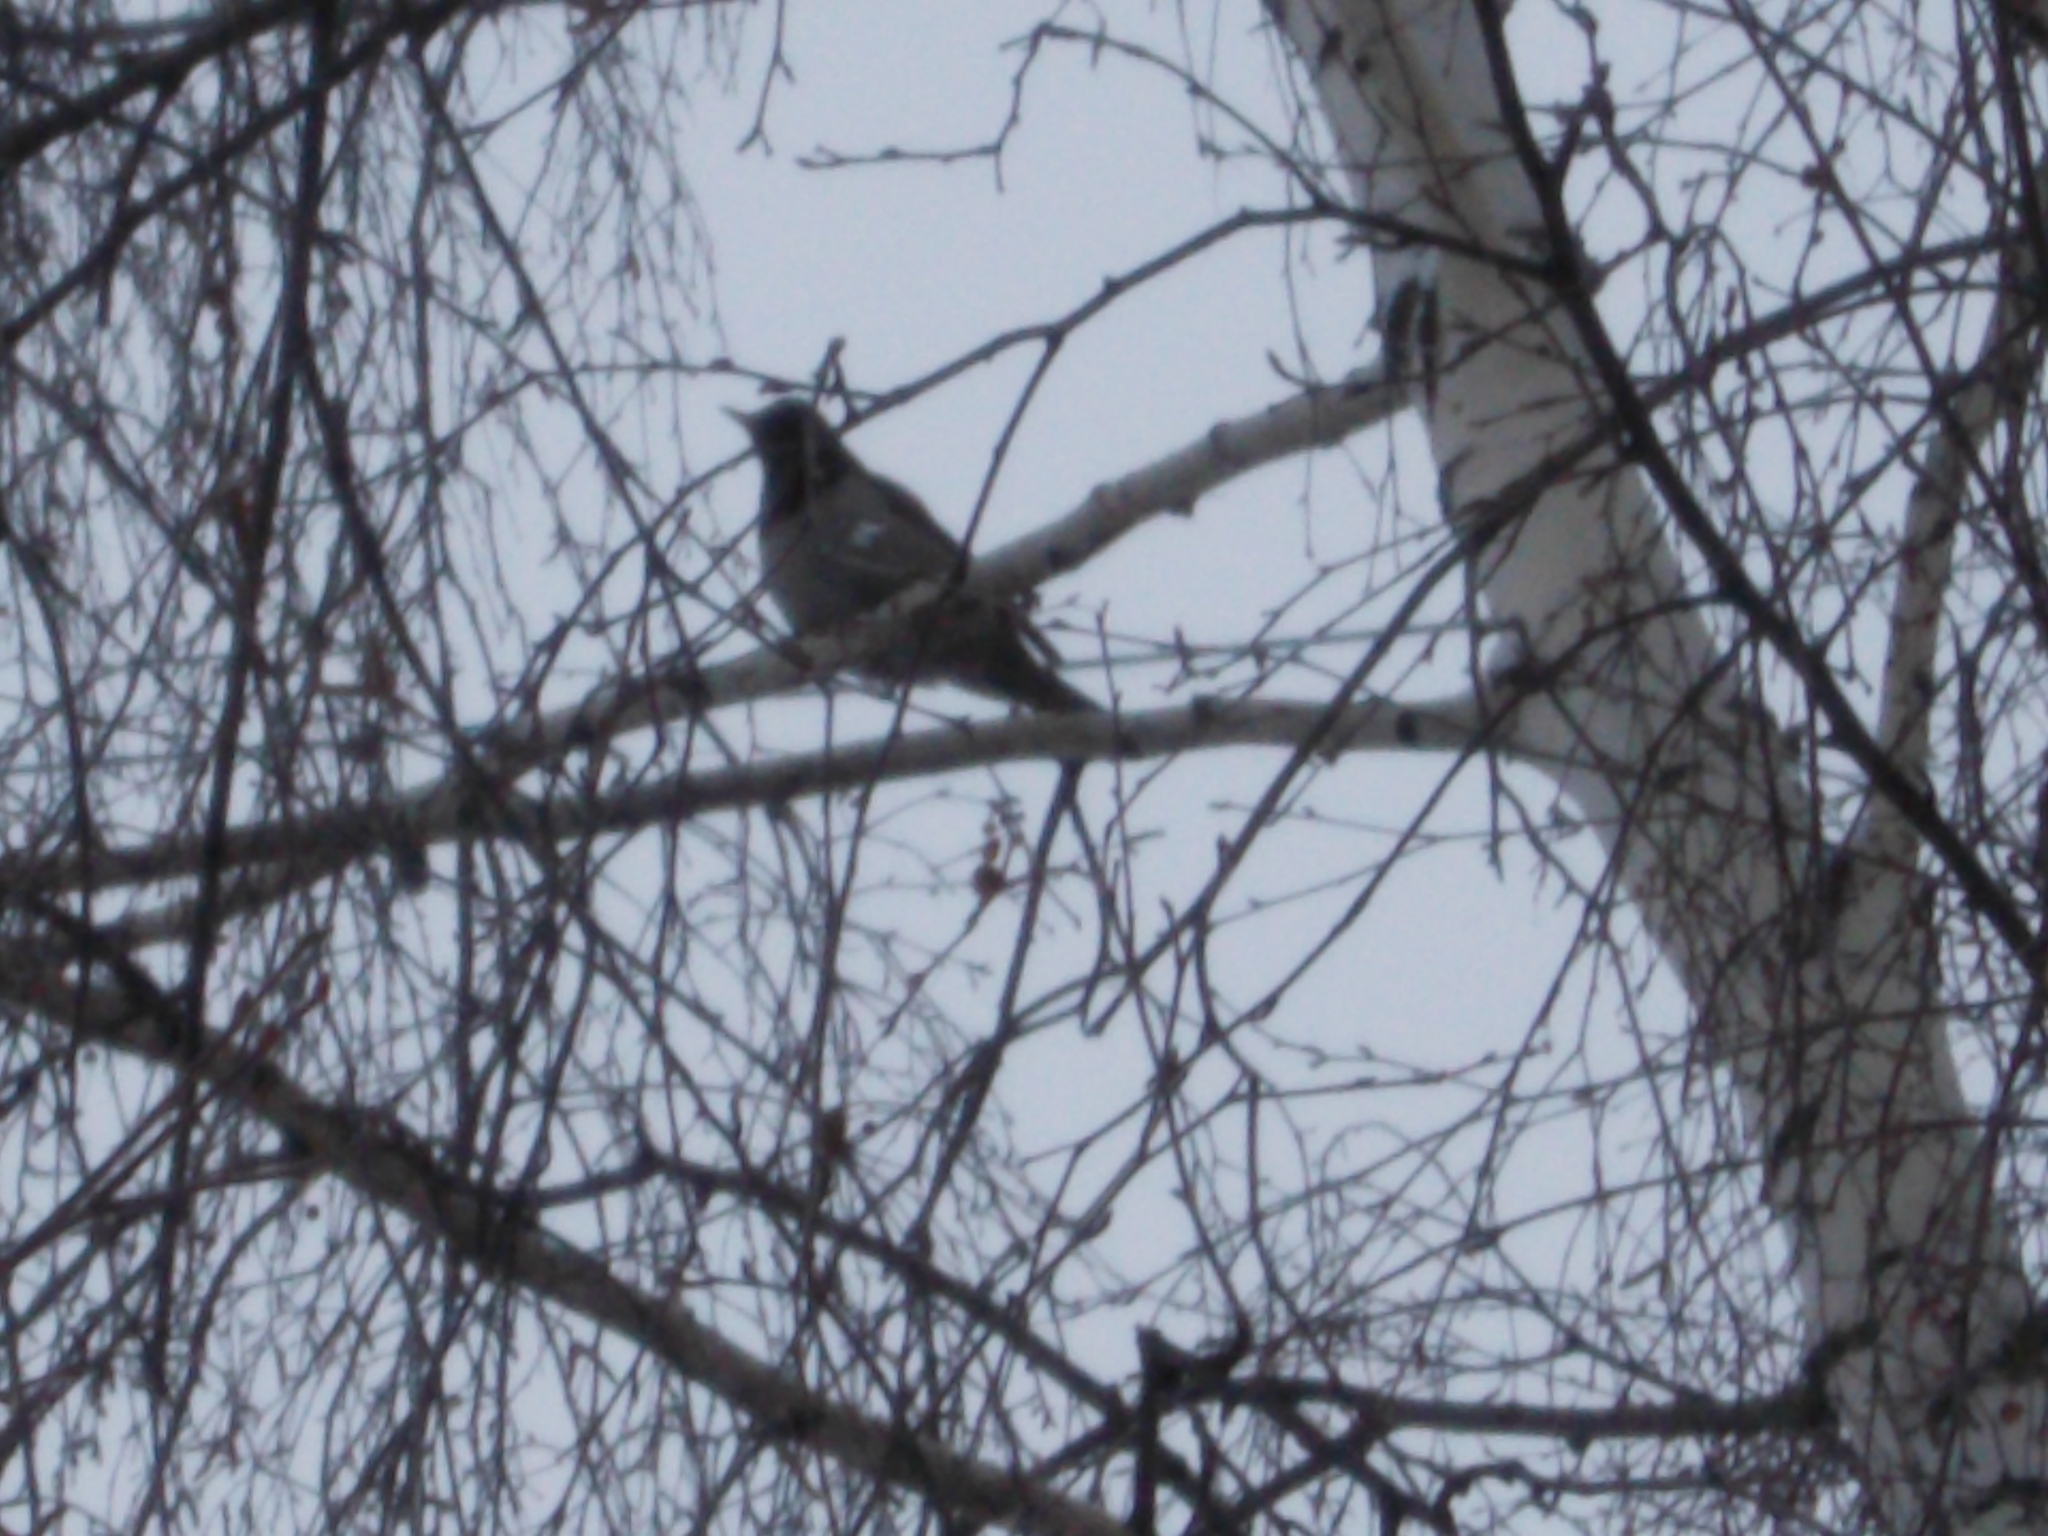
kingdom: Animalia
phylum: Chordata
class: Aves
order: Passeriformes
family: Turdidae
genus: Turdus
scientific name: Turdus atrogularis
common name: Black-throated thrush
